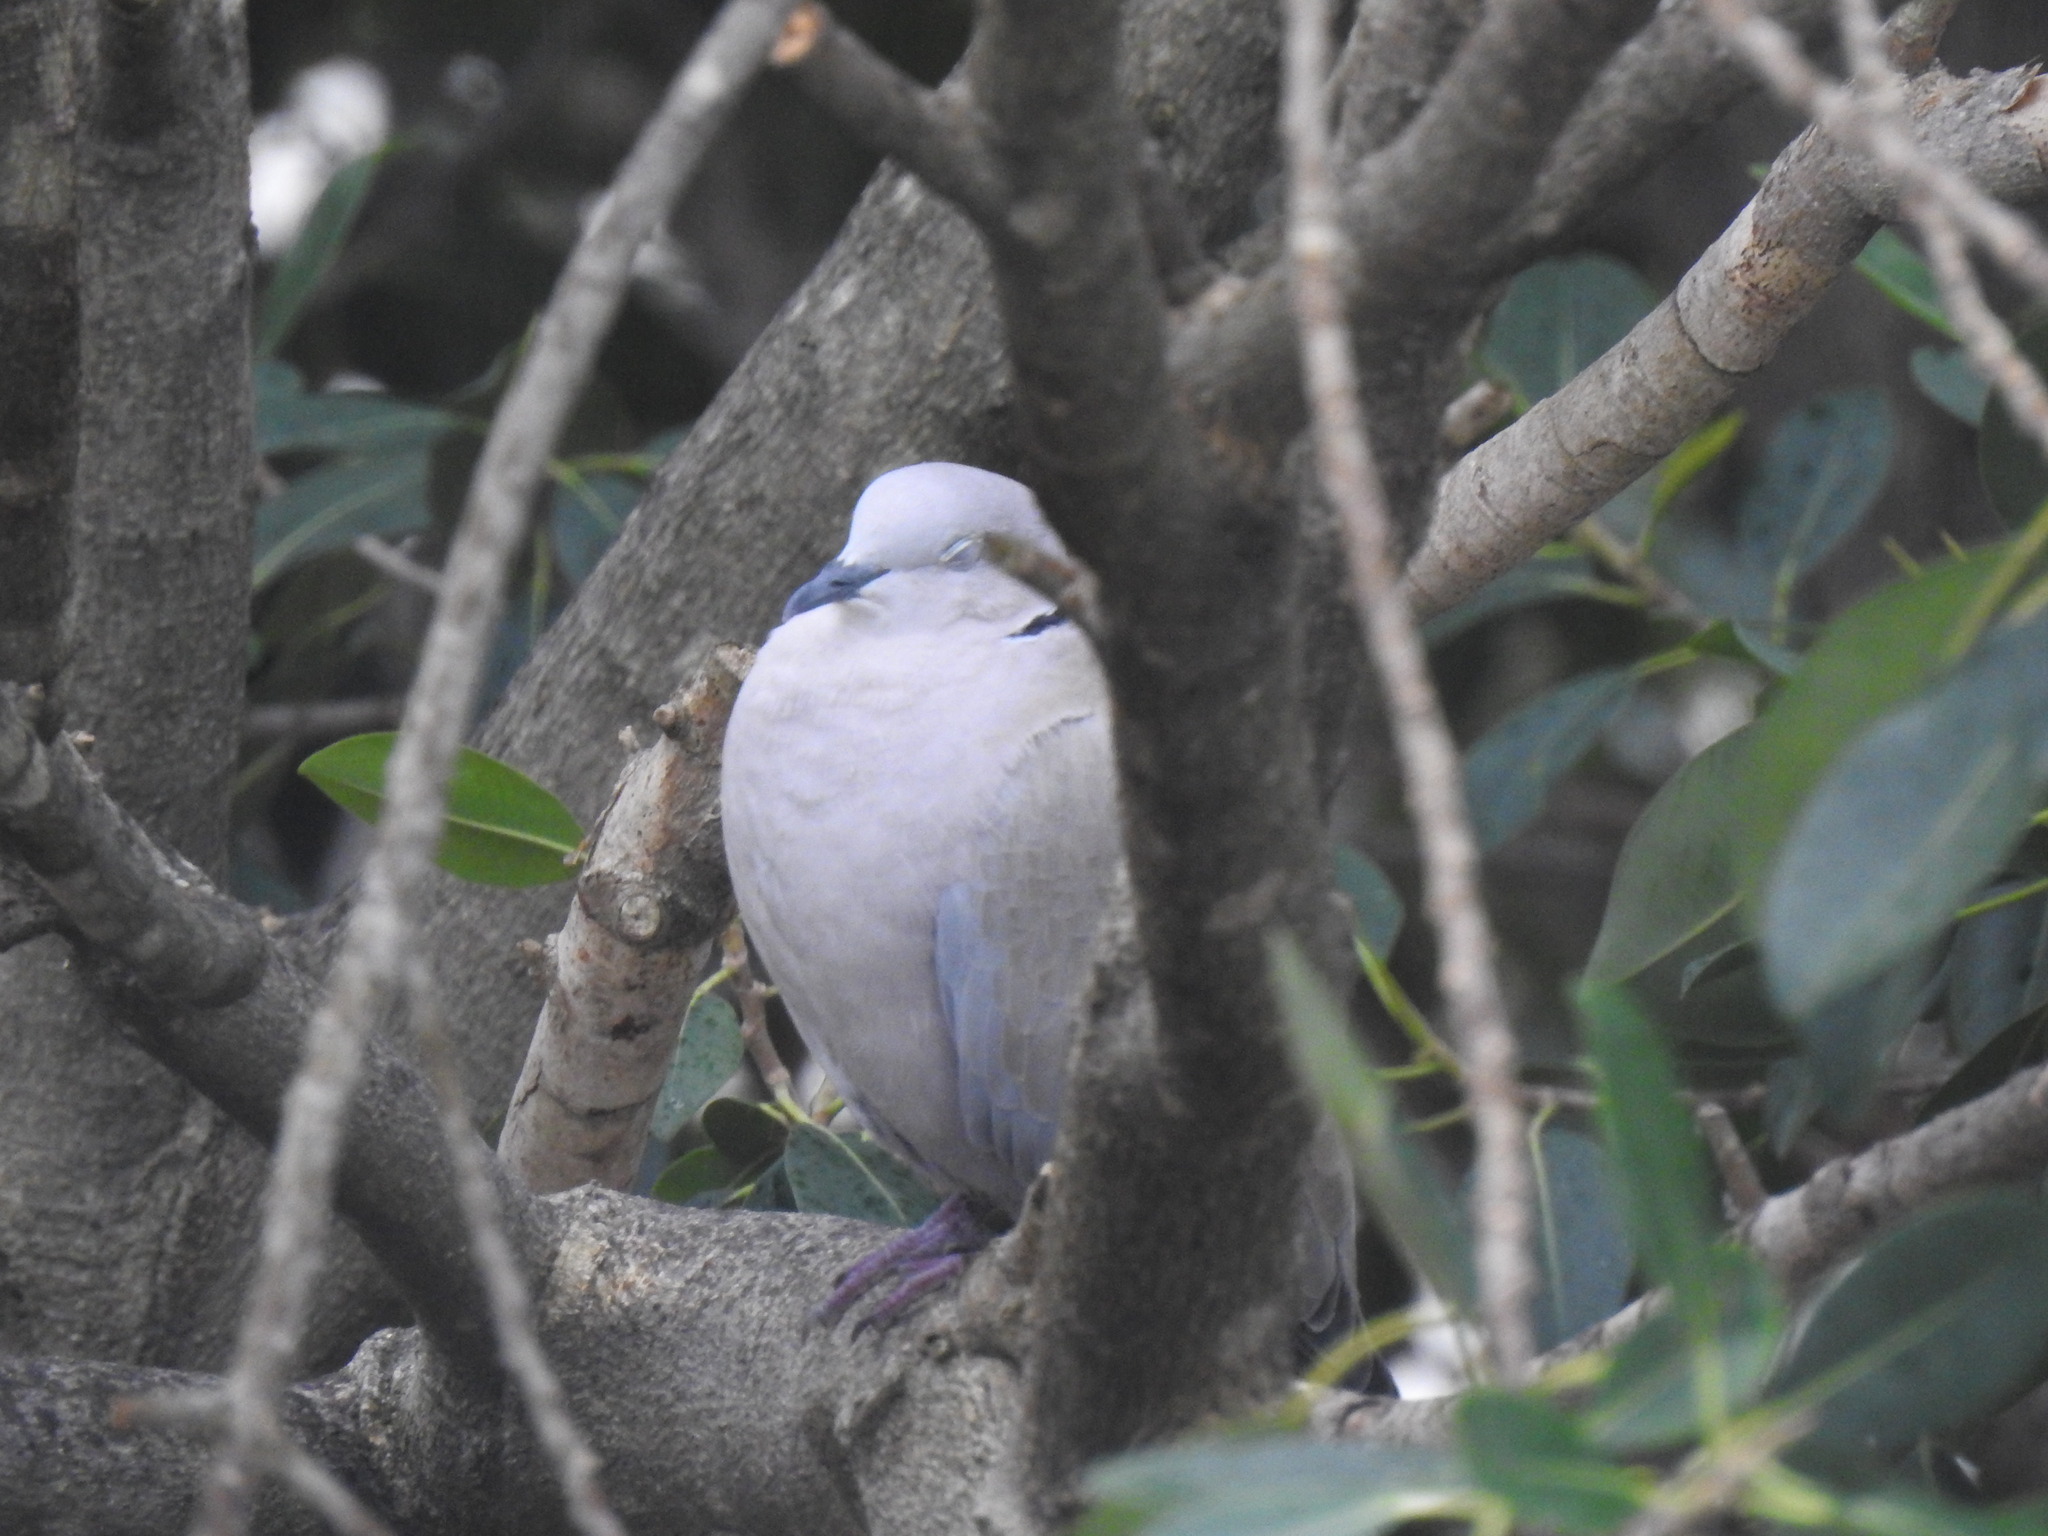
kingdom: Animalia
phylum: Chordata
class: Aves
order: Columbiformes
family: Columbidae
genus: Streptopelia
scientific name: Streptopelia decaocto
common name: Eurasian collared dove
